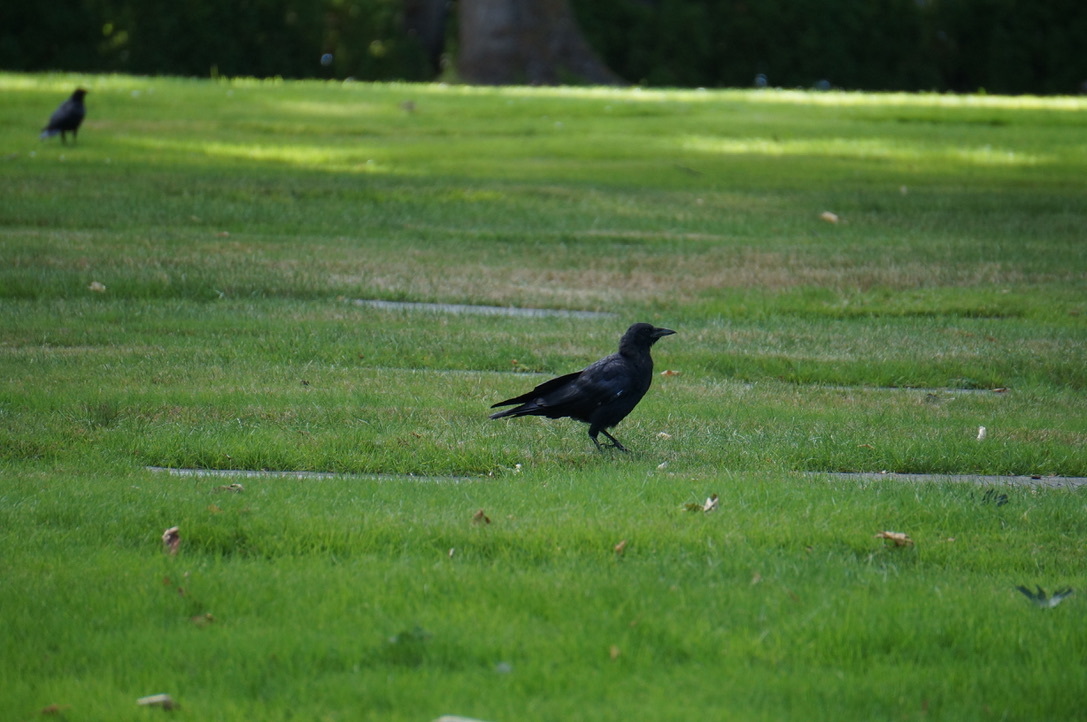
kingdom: Animalia
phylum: Chordata
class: Aves
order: Passeriformes
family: Corvidae
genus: Corvus
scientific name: Corvus brachyrhynchos
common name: American crow
